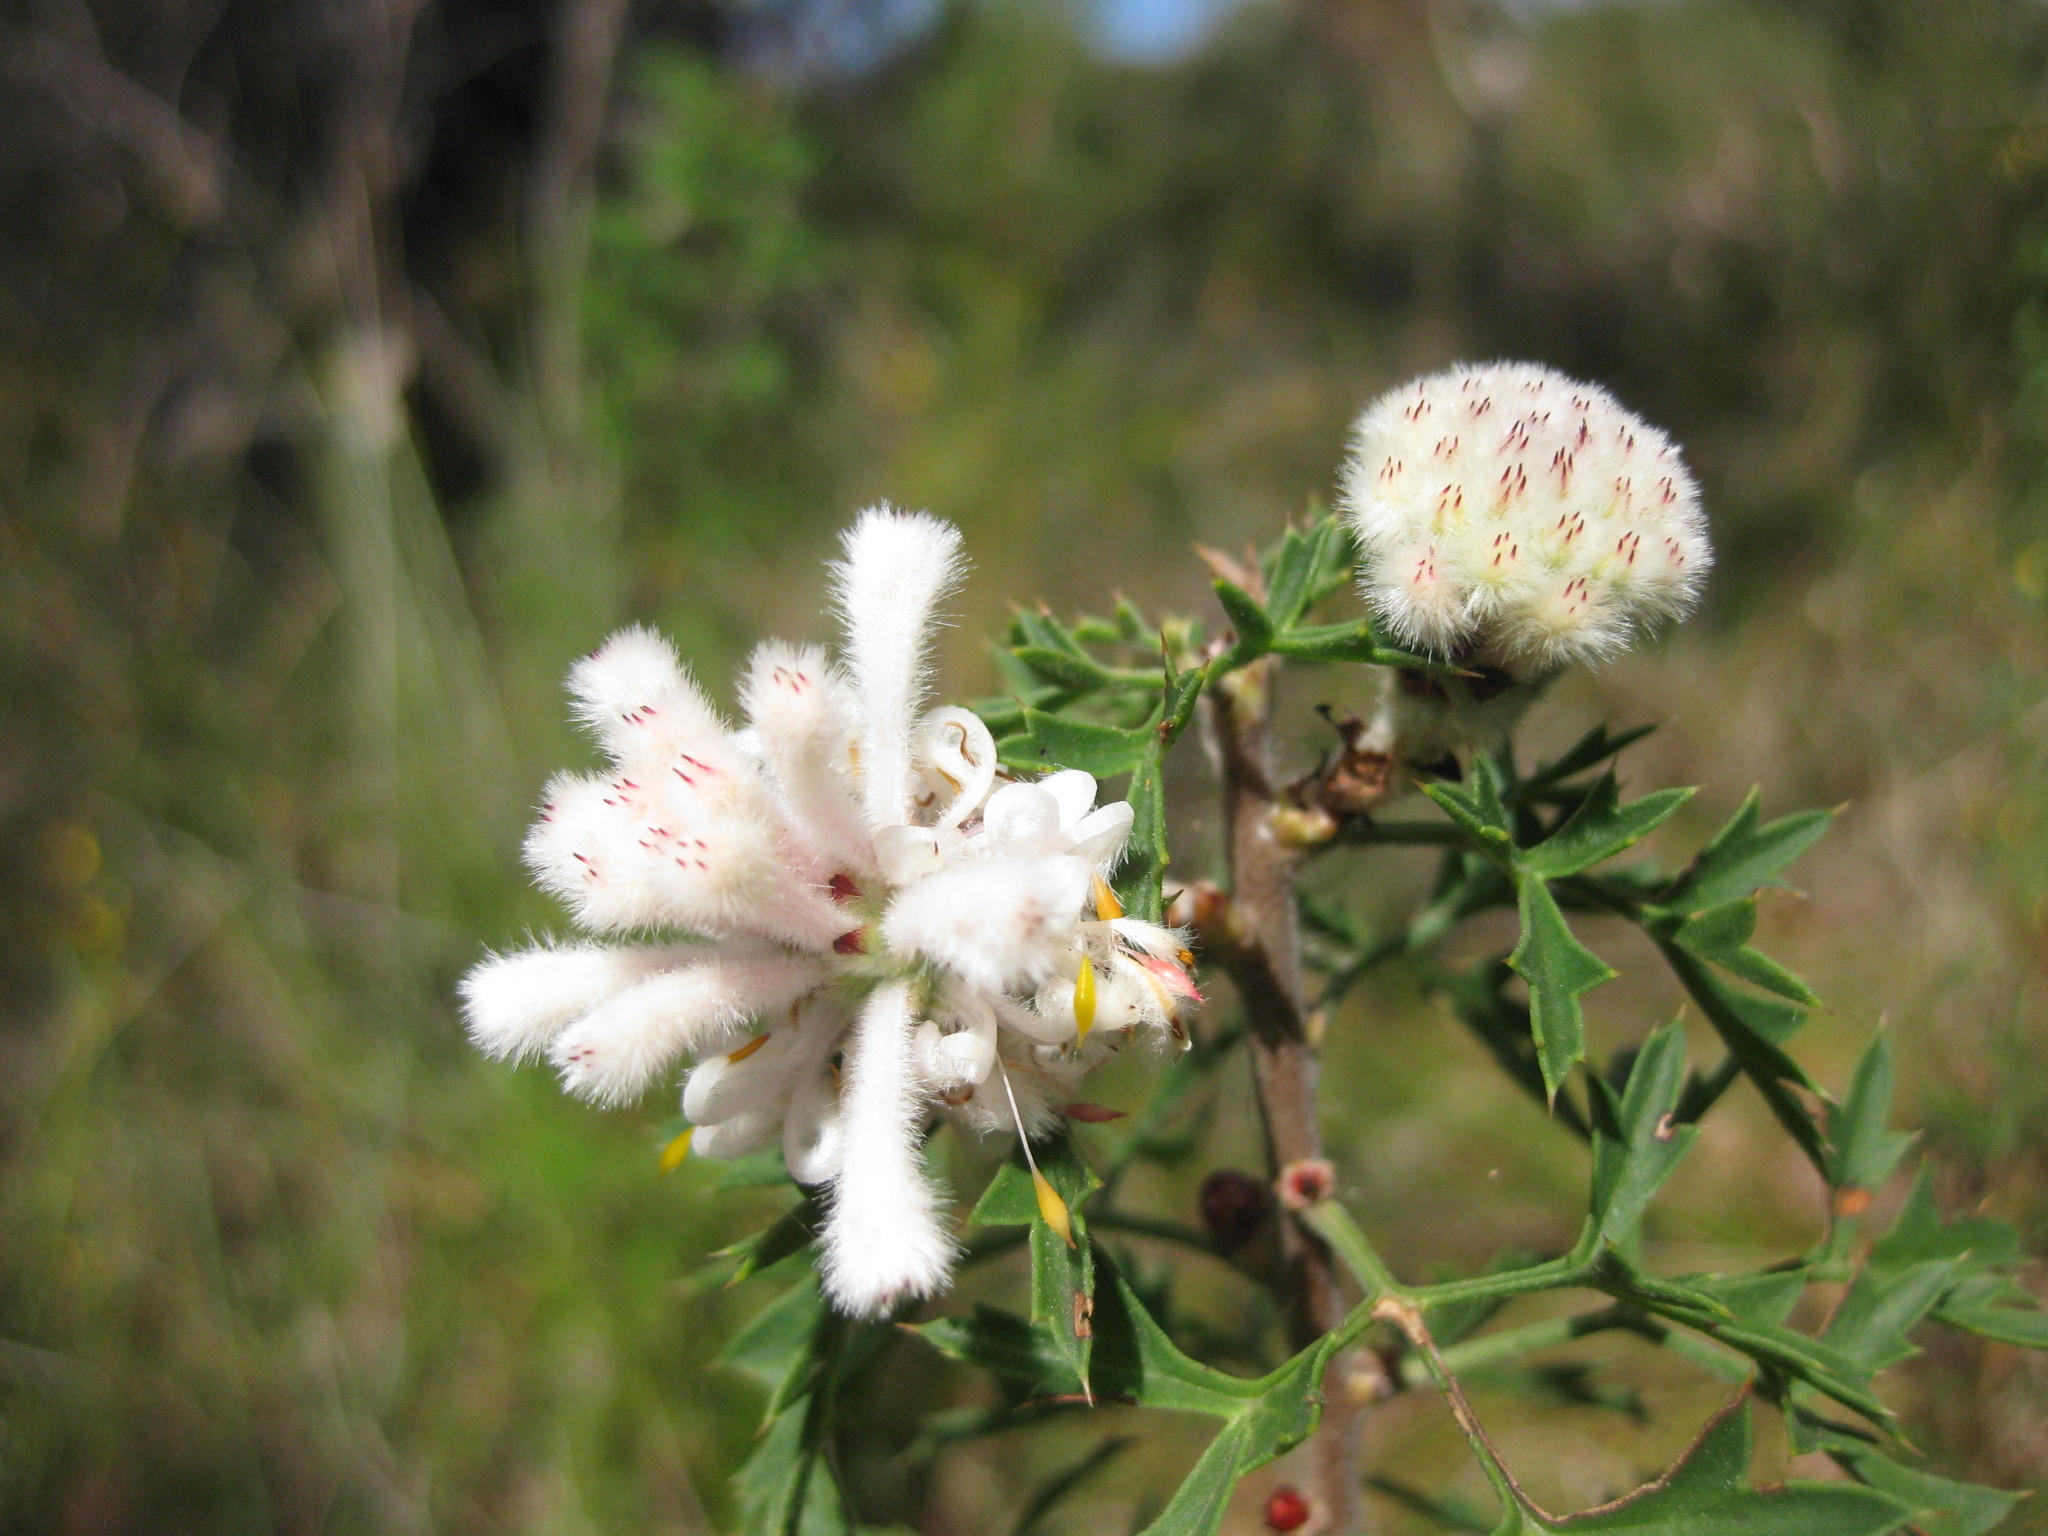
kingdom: Plantae
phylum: Tracheophyta
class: Magnoliopsida
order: Proteales
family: Proteaceae
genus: Petrophile
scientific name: Petrophile diversifolia
